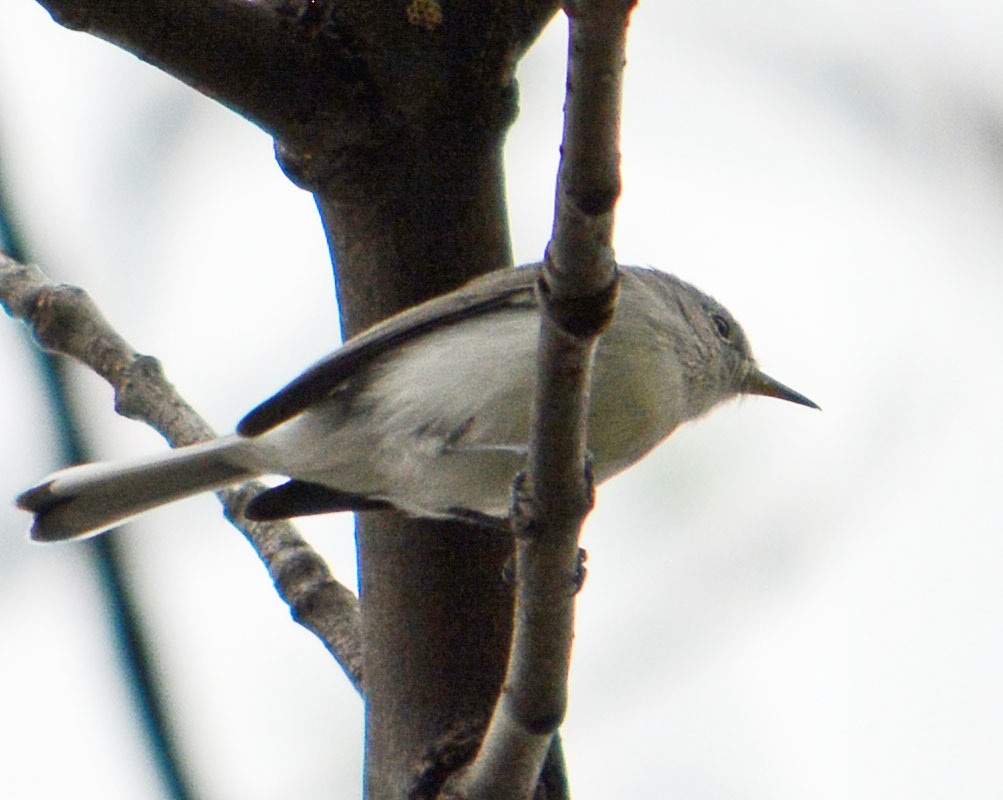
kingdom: Animalia
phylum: Chordata
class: Aves
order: Passeriformes
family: Polioptilidae
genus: Polioptila
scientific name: Polioptila caerulea
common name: Blue-gray gnatcatcher
